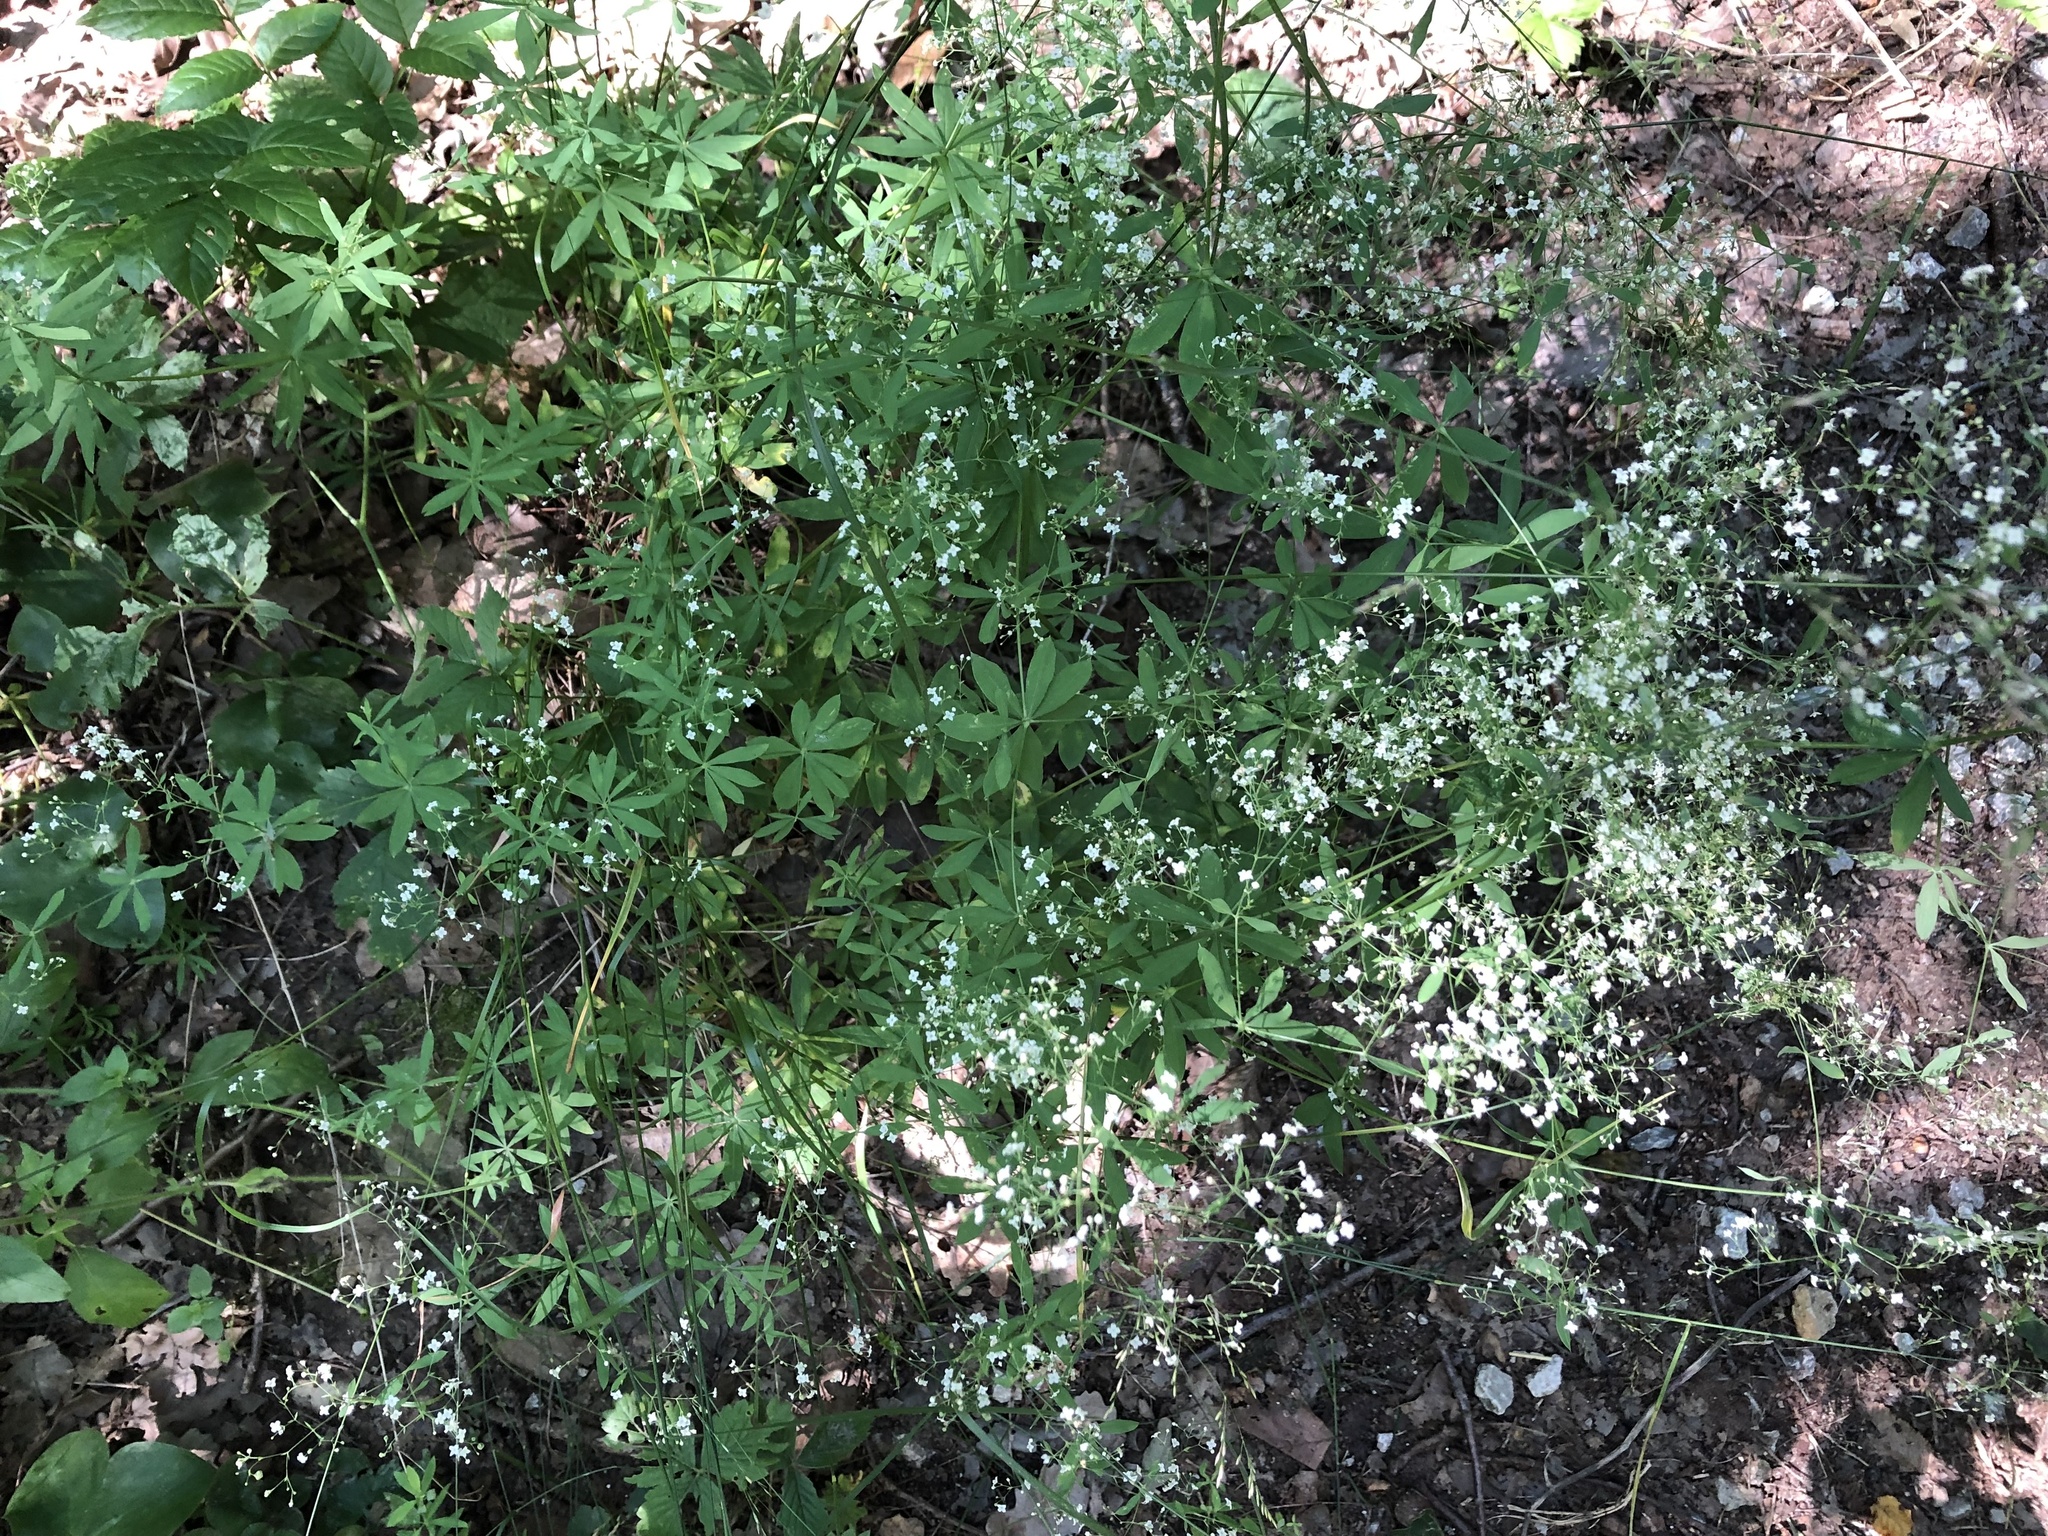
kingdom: Plantae
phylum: Tracheophyta
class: Magnoliopsida
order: Gentianales
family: Rubiaceae
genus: Galium
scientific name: Galium sylvaticum
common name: Wood bedstraw
